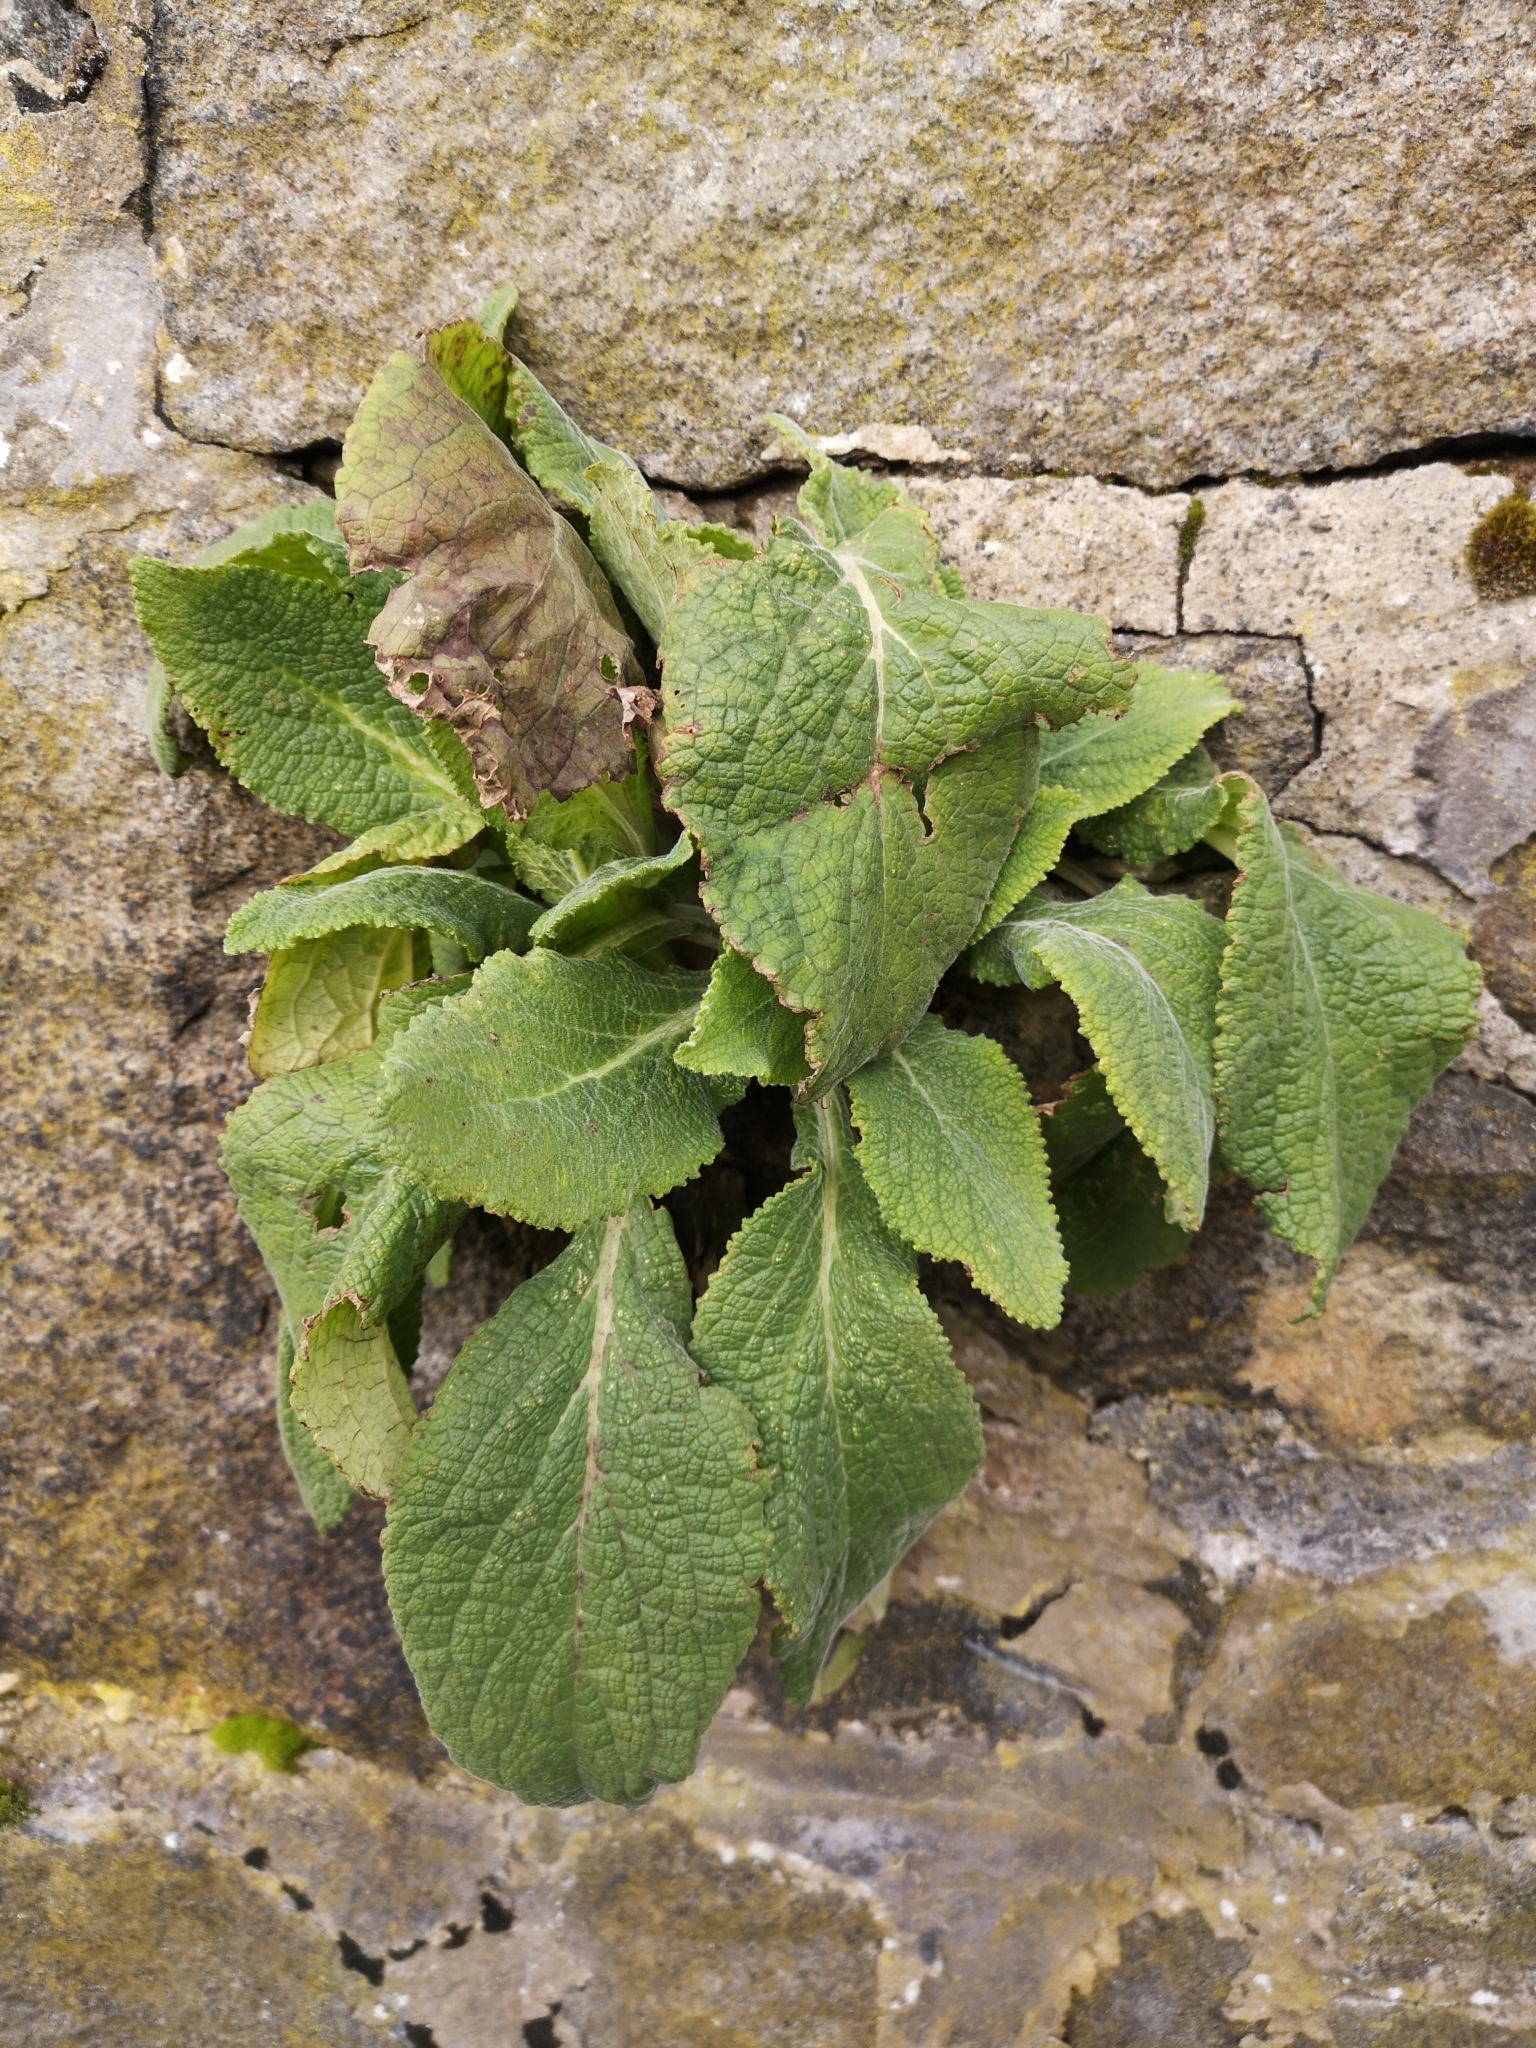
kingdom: Plantae
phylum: Tracheophyta
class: Magnoliopsida
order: Lamiales
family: Plantaginaceae
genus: Digitalis
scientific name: Digitalis purpurea
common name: Foxglove
